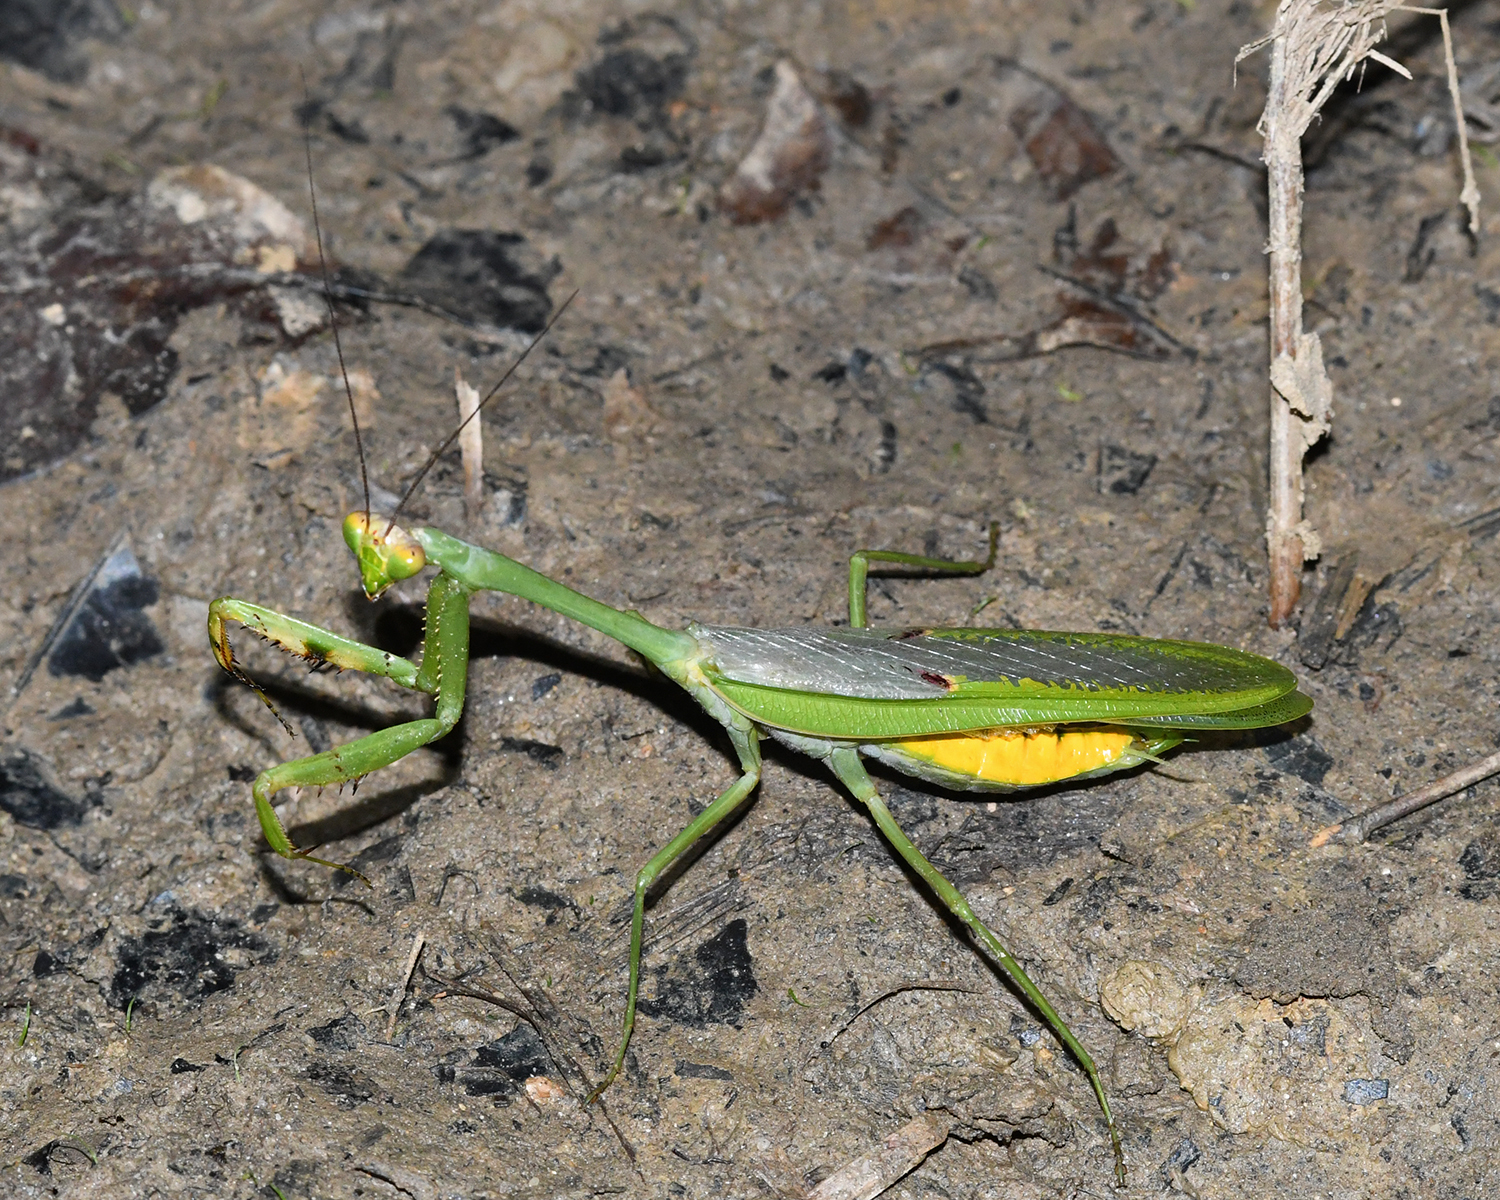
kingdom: Animalia
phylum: Arthropoda
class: Insecta
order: Mantodea
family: Mantidae
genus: Stagmatoptera
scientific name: Stagmatoptera septentrionalis
